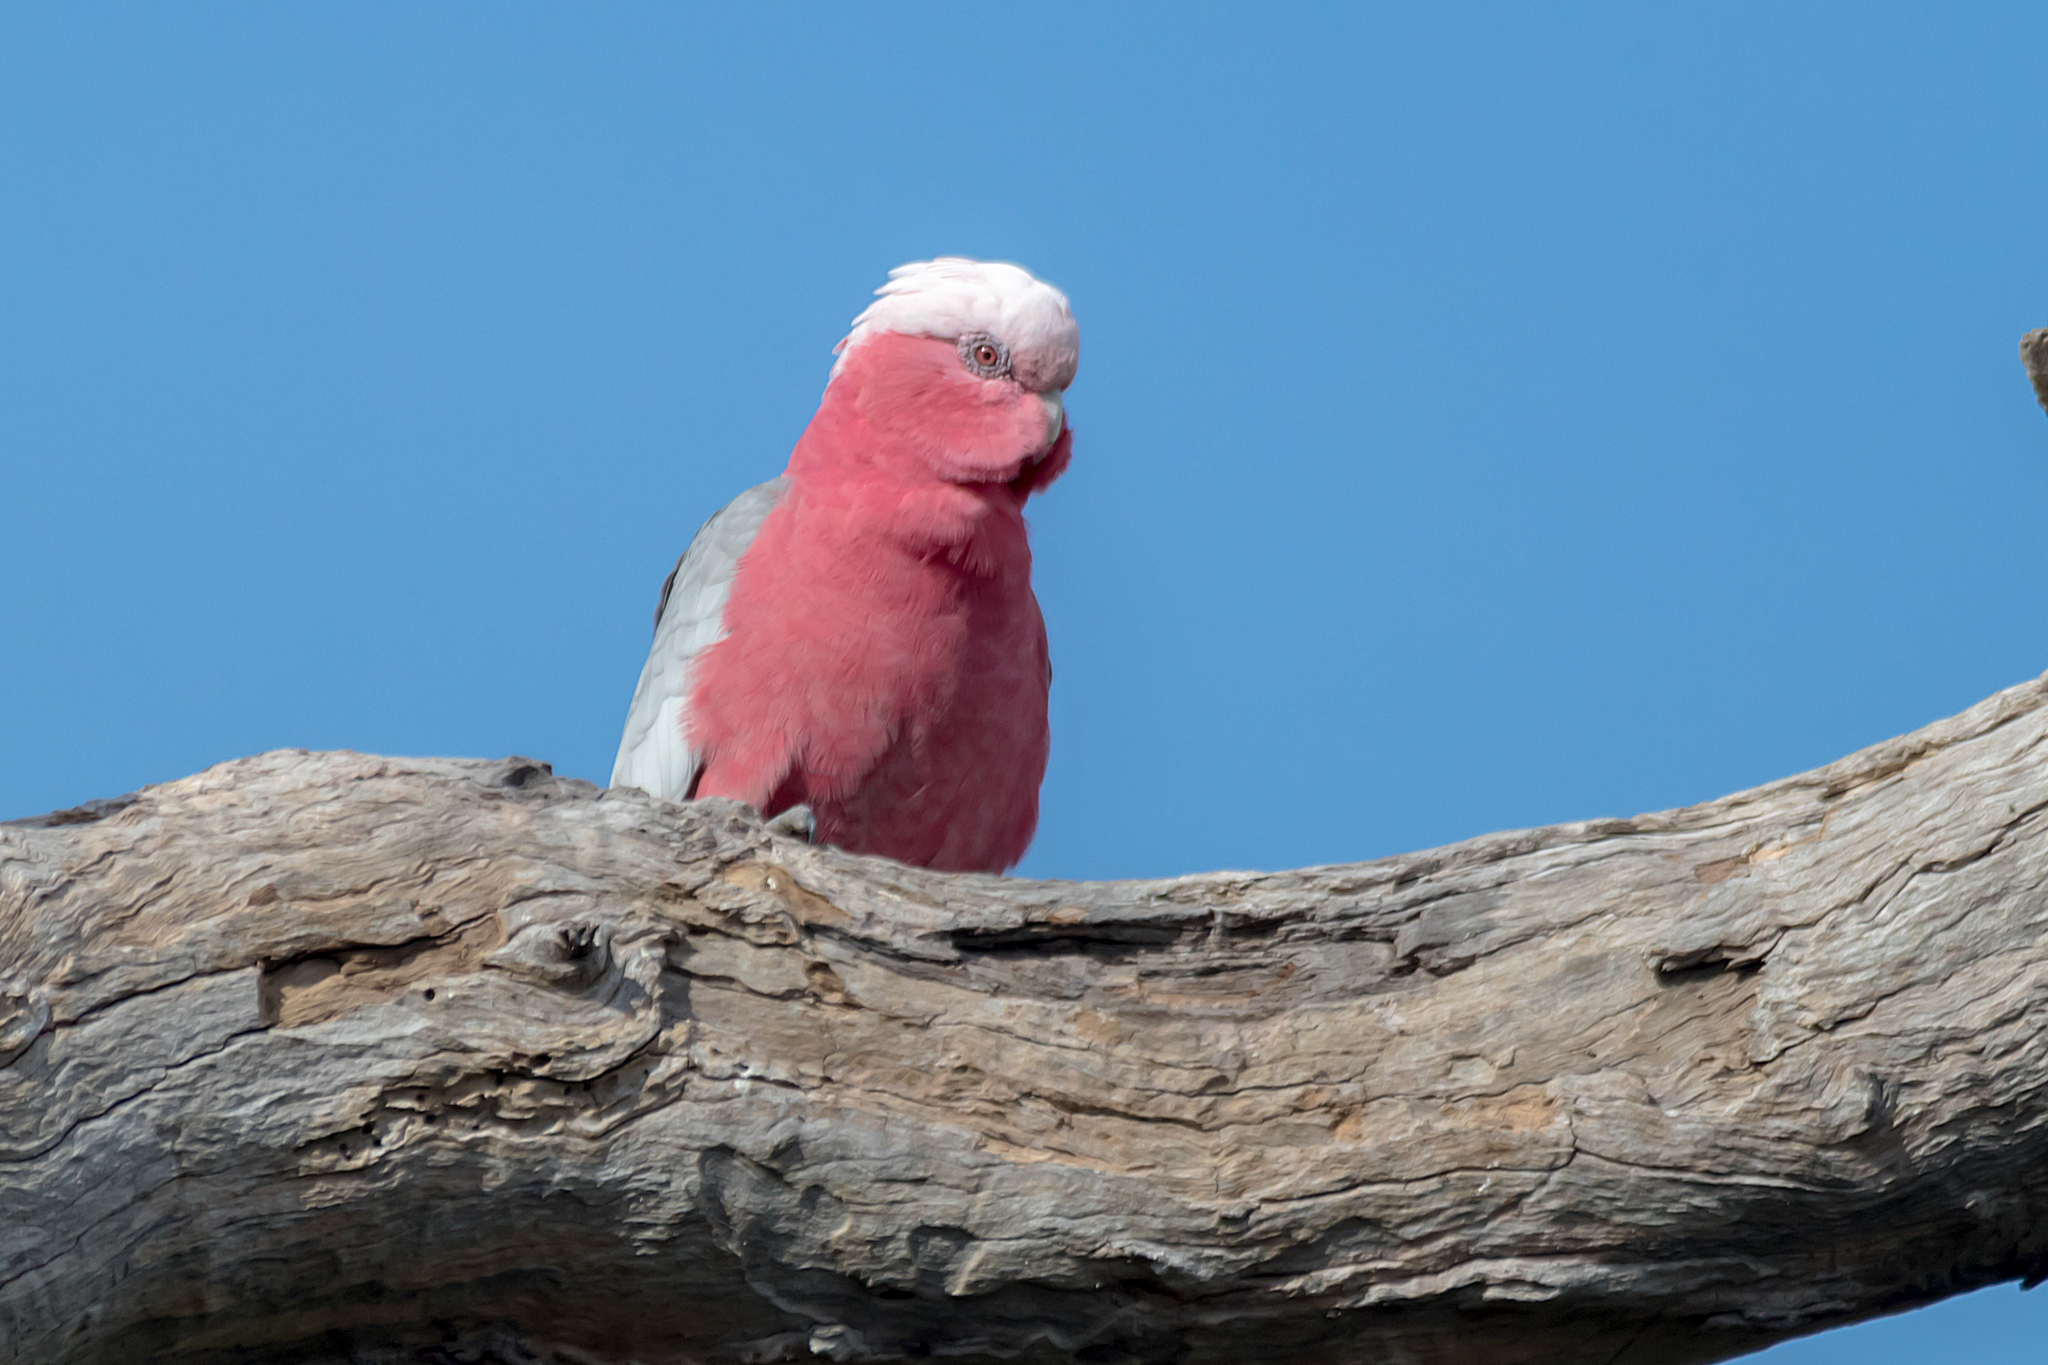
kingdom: Animalia
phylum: Chordata
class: Aves
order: Psittaciformes
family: Psittacidae
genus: Eolophus
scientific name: Eolophus roseicapilla
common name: Galah
